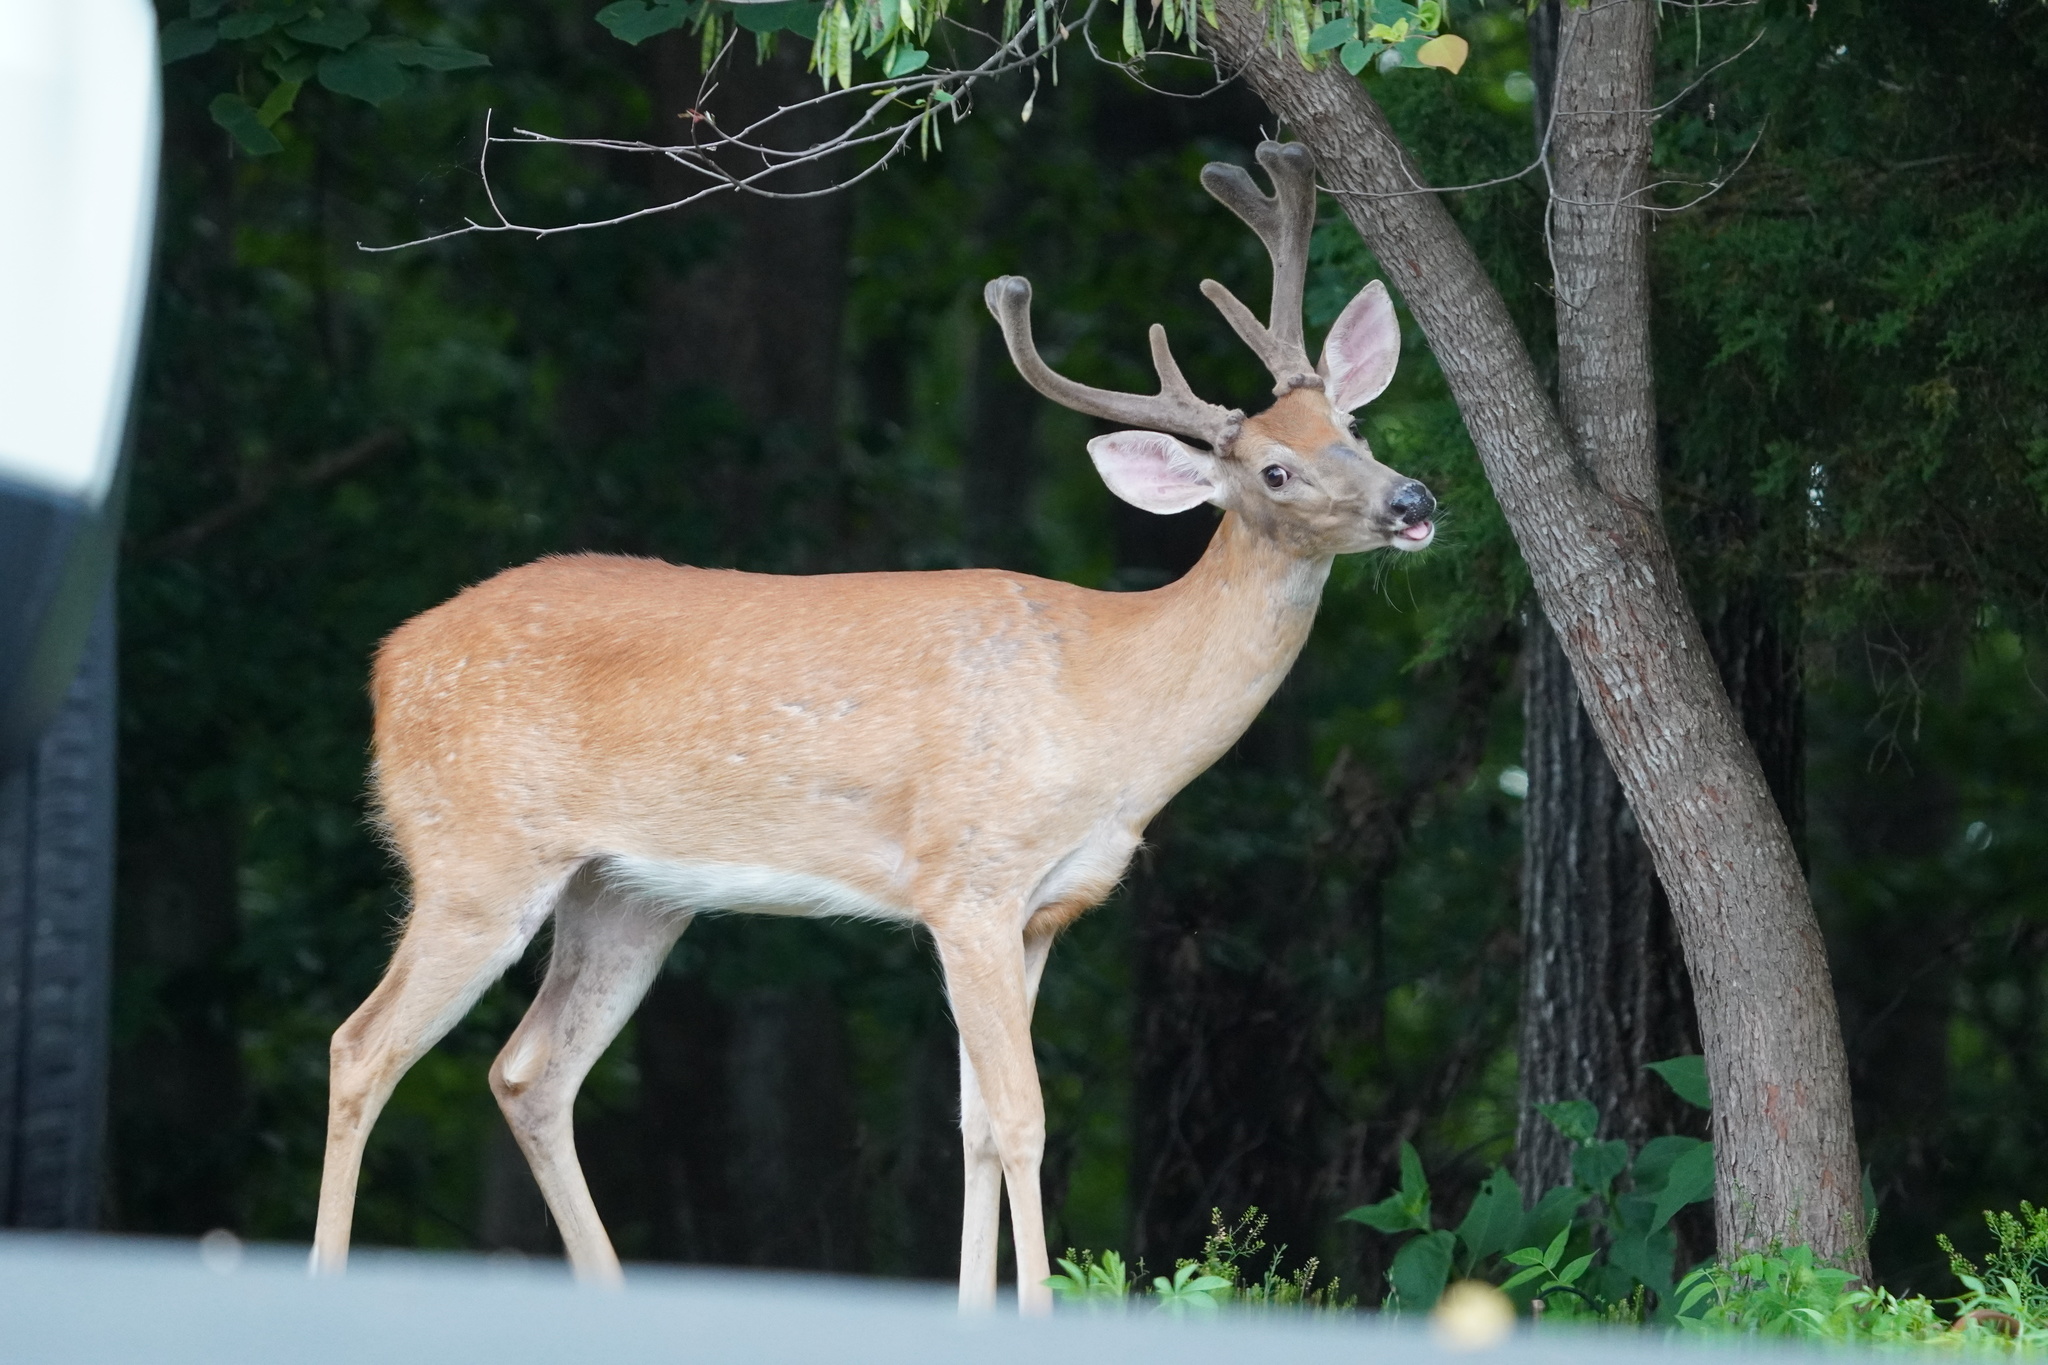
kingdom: Animalia
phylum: Chordata
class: Mammalia
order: Artiodactyla
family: Cervidae
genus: Odocoileus
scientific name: Odocoileus virginianus
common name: White-tailed deer
